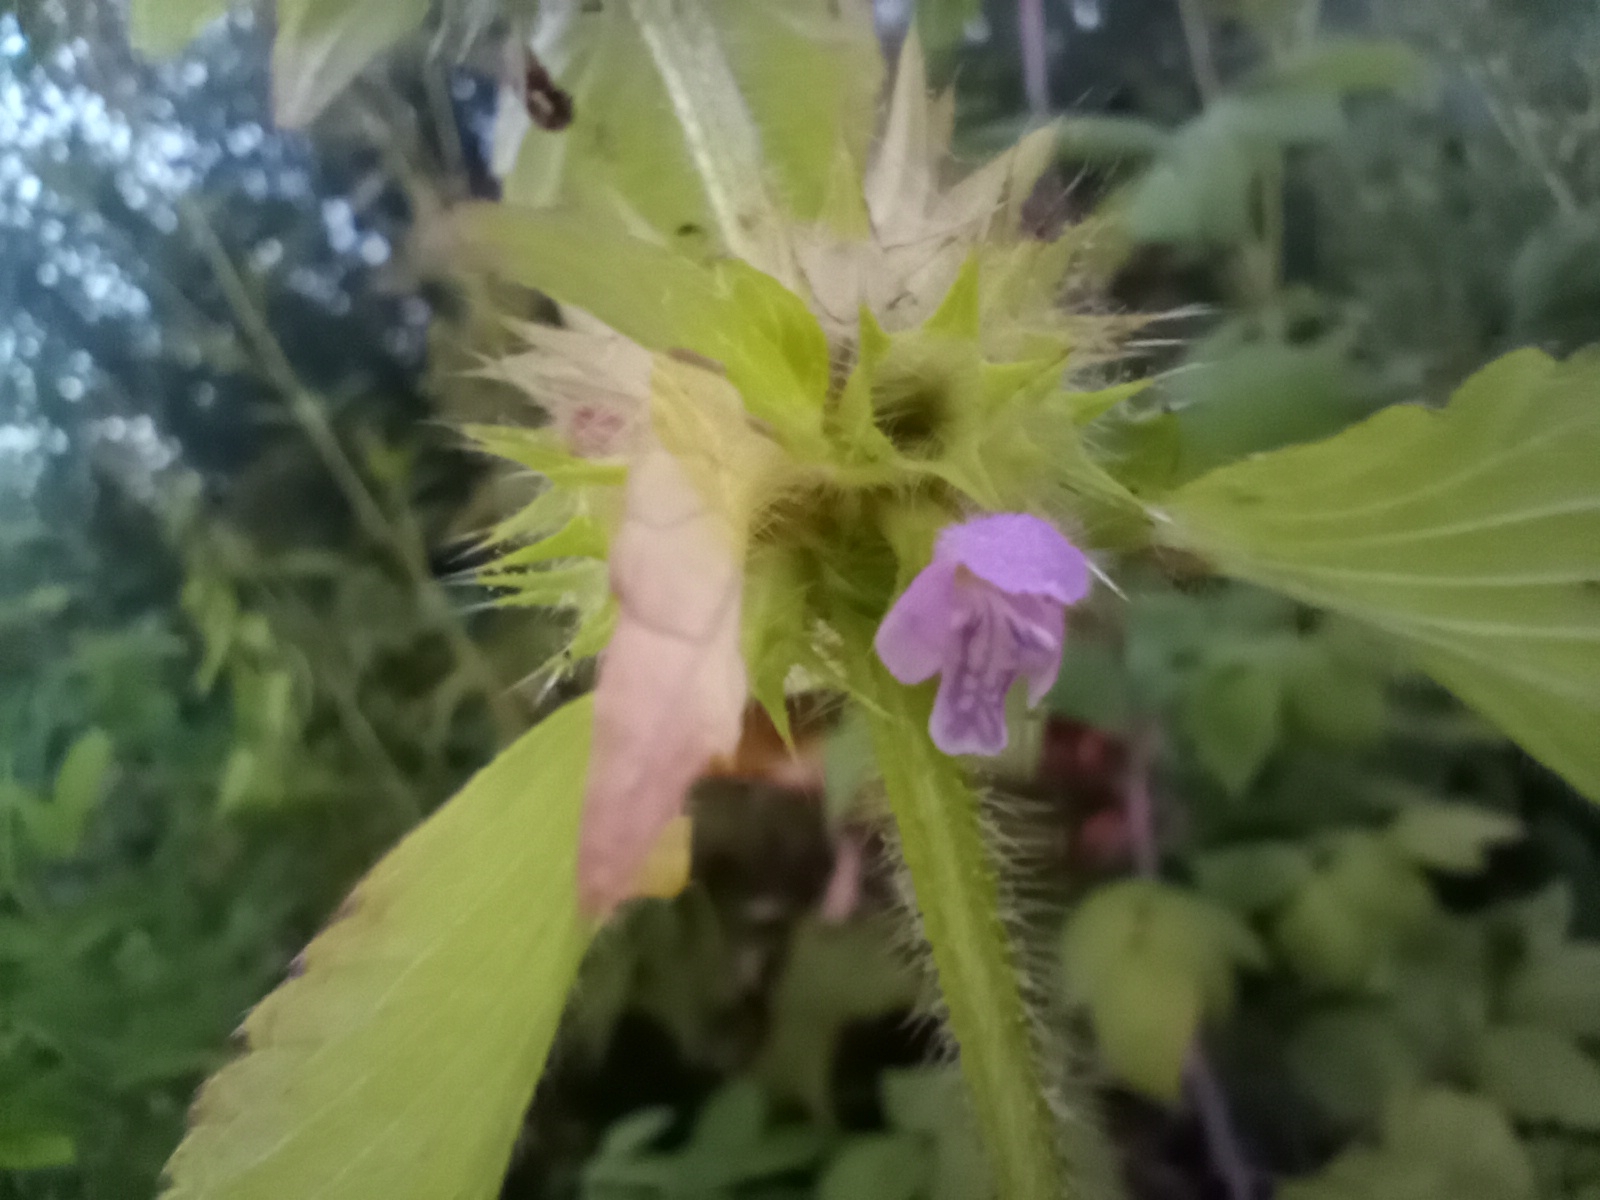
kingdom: Plantae
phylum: Tracheophyta
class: Magnoliopsida
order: Lamiales
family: Lamiaceae
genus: Galeopsis
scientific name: Galeopsis bifida
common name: Bifid hemp-nettle
